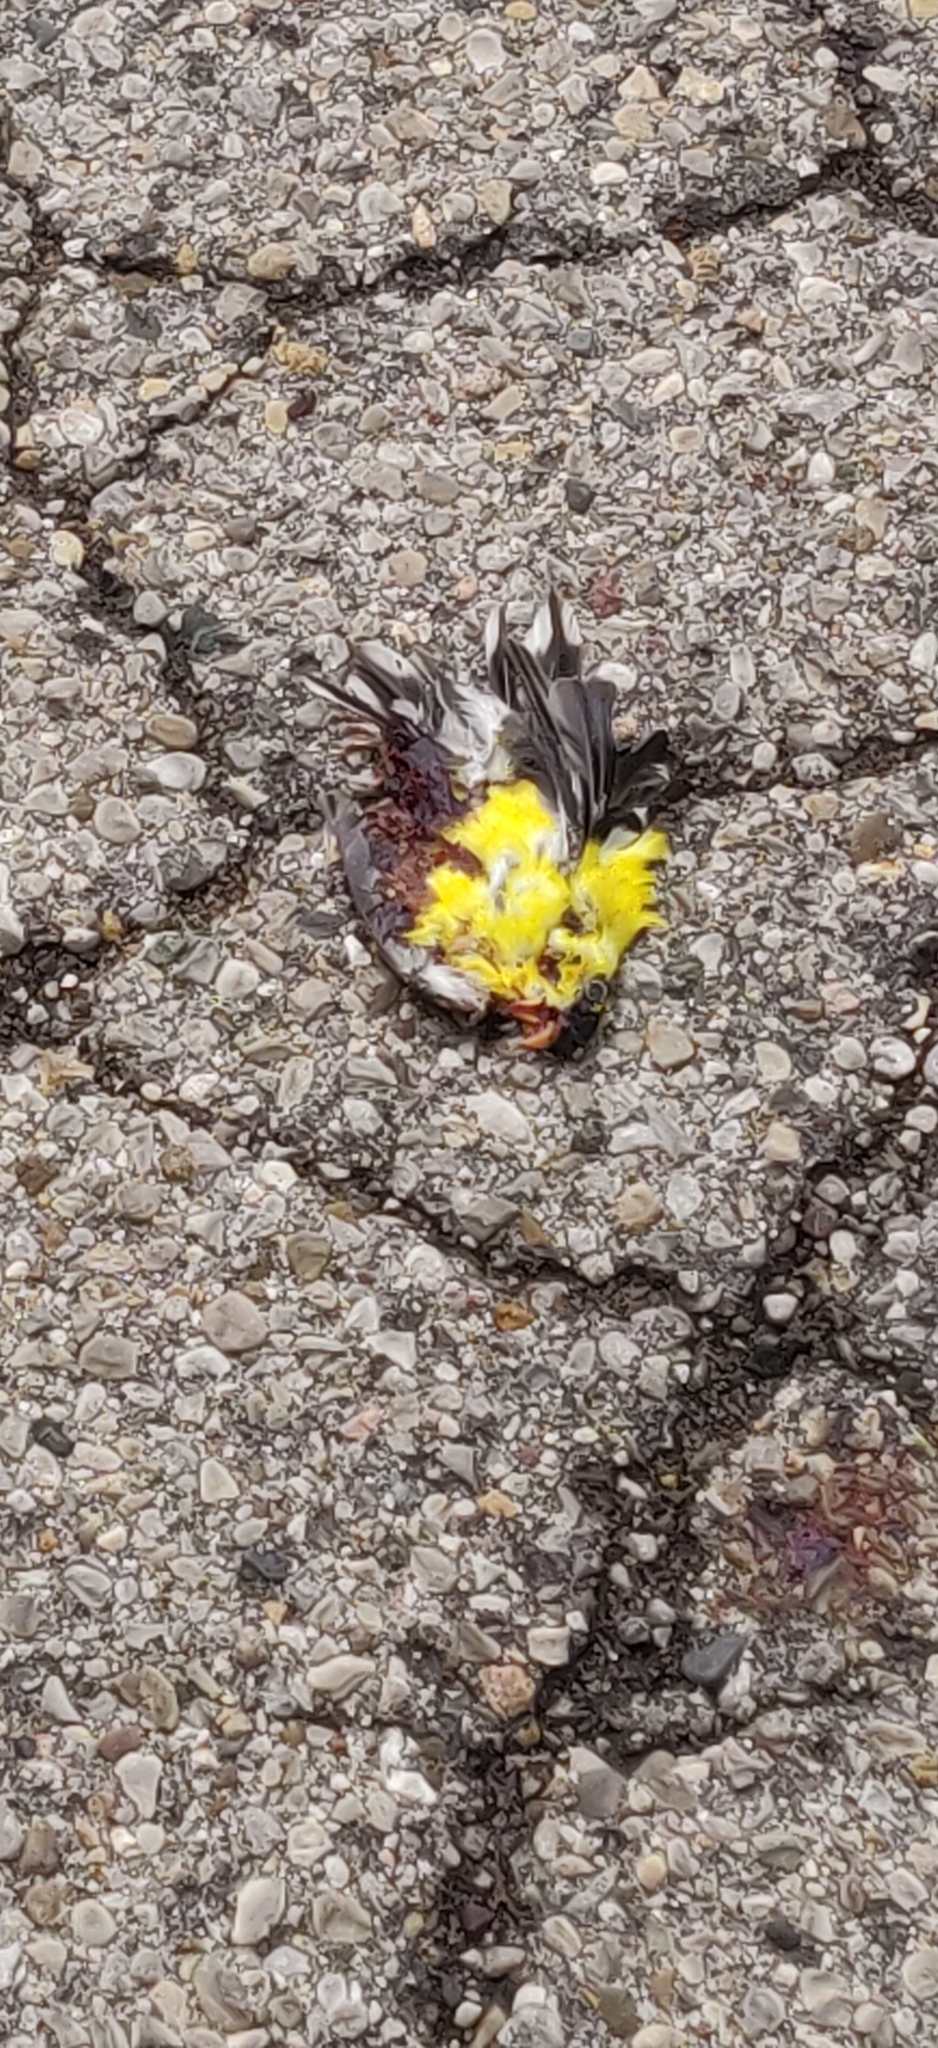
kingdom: Animalia
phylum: Chordata
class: Aves
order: Passeriformes
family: Fringillidae
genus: Spinus
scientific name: Spinus tristis
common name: American goldfinch
